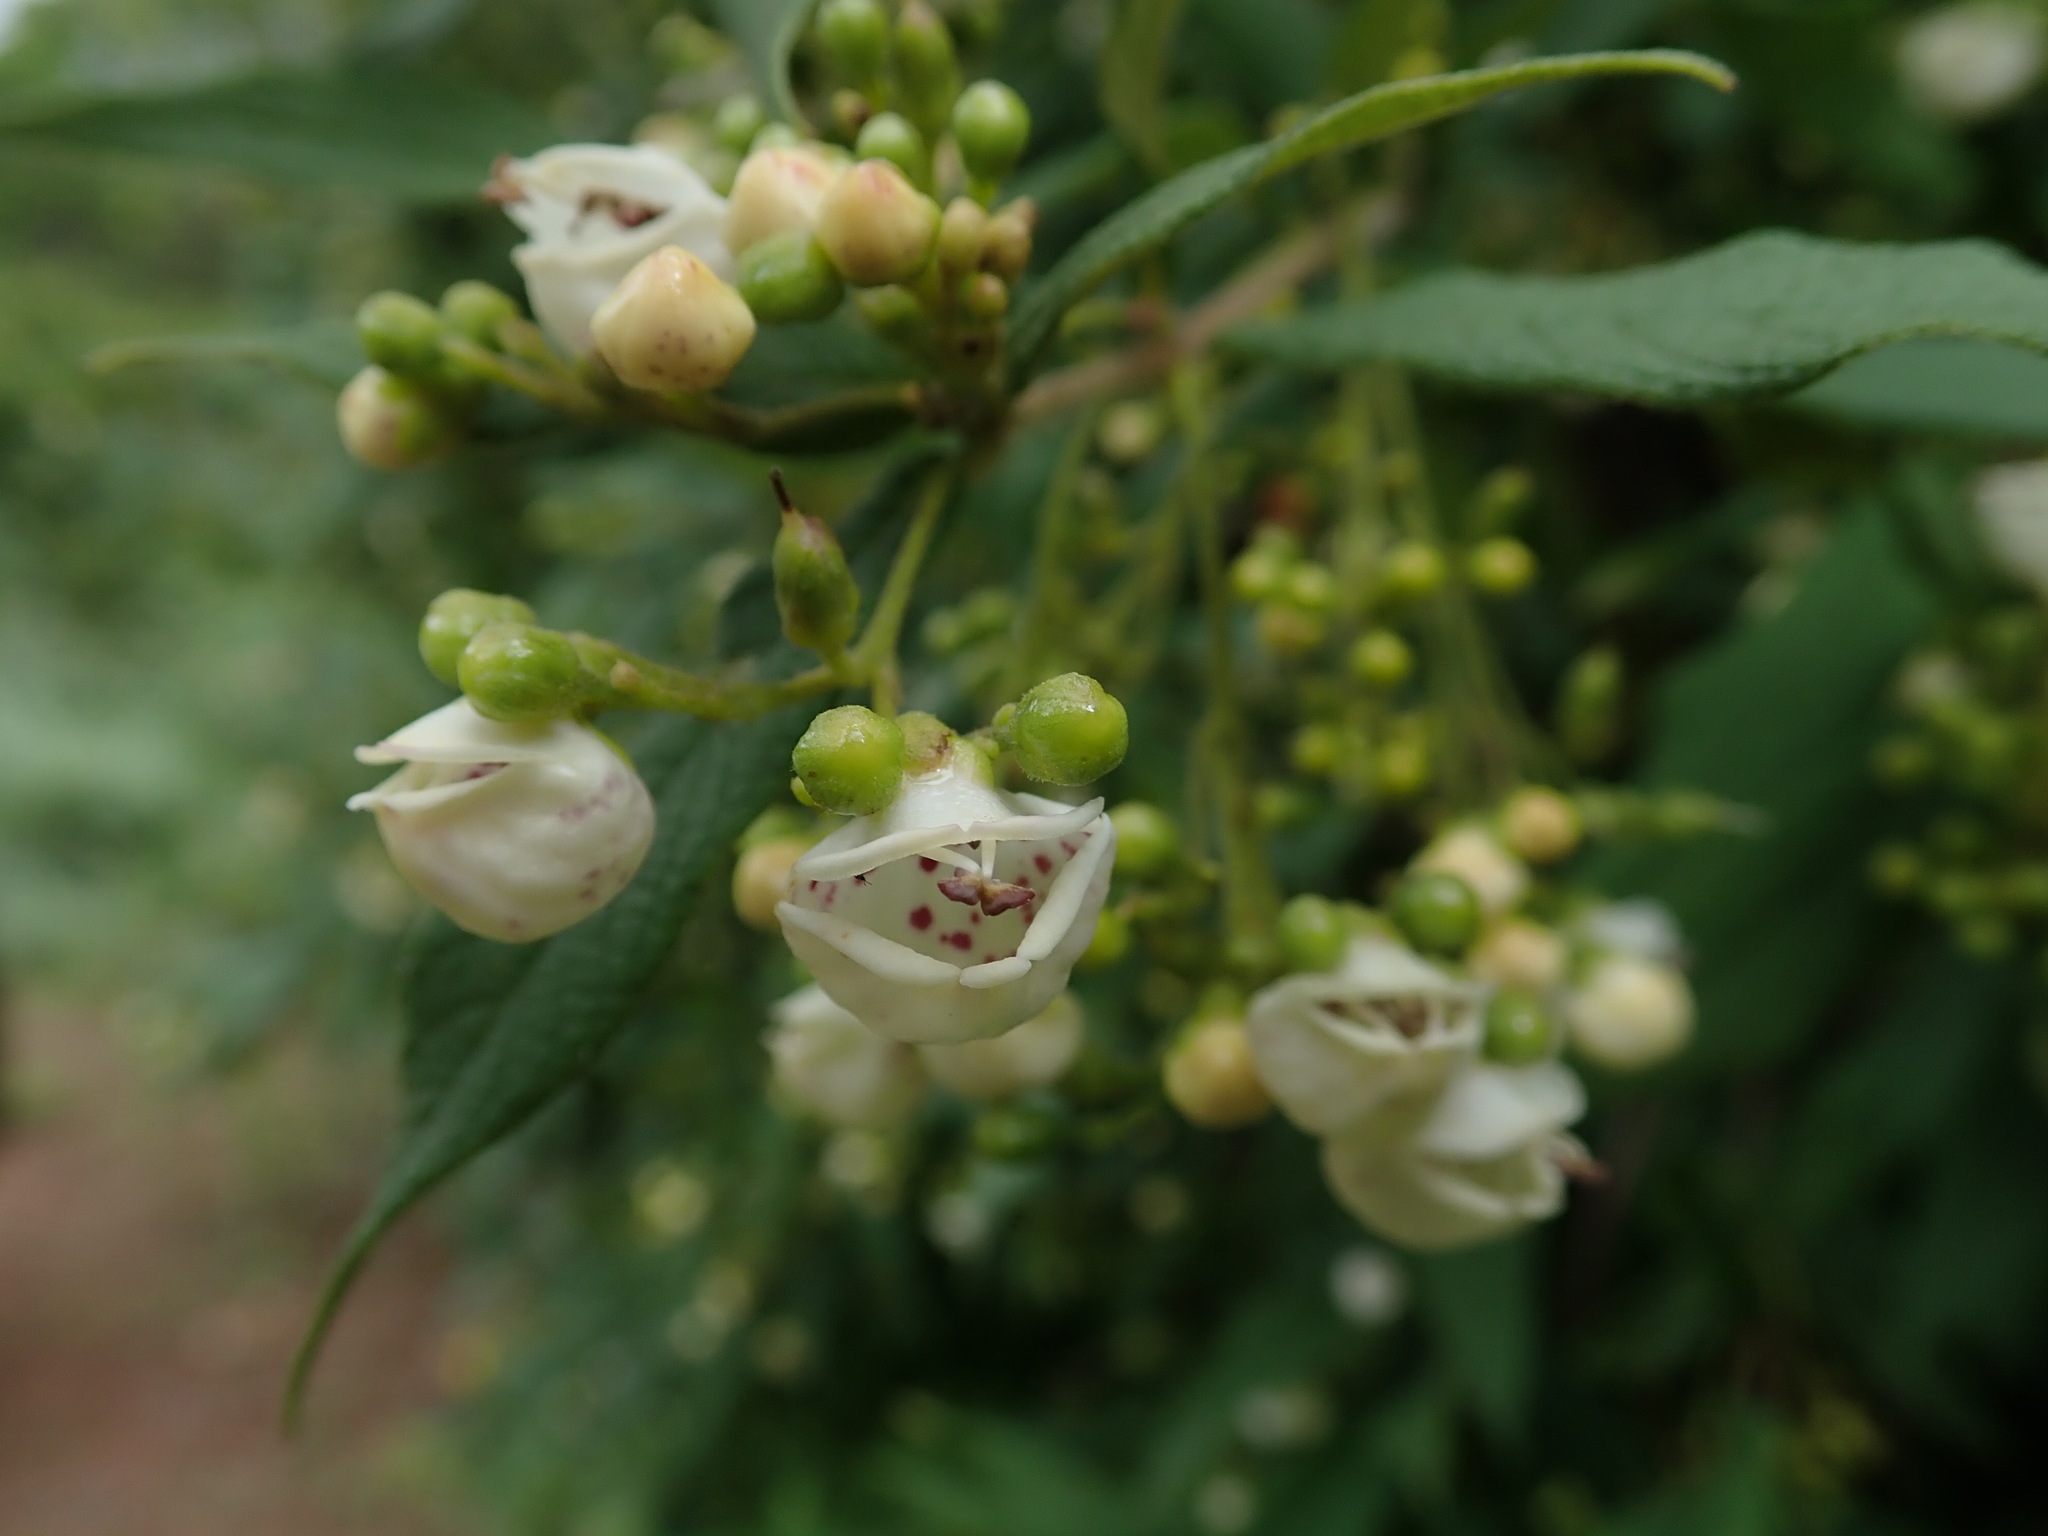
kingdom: Plantae
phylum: Tracheophyta
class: Magnoliopsida
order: Lamiales
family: Stilbaceae
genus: Bowkeria
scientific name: Bowkeria cymosa
